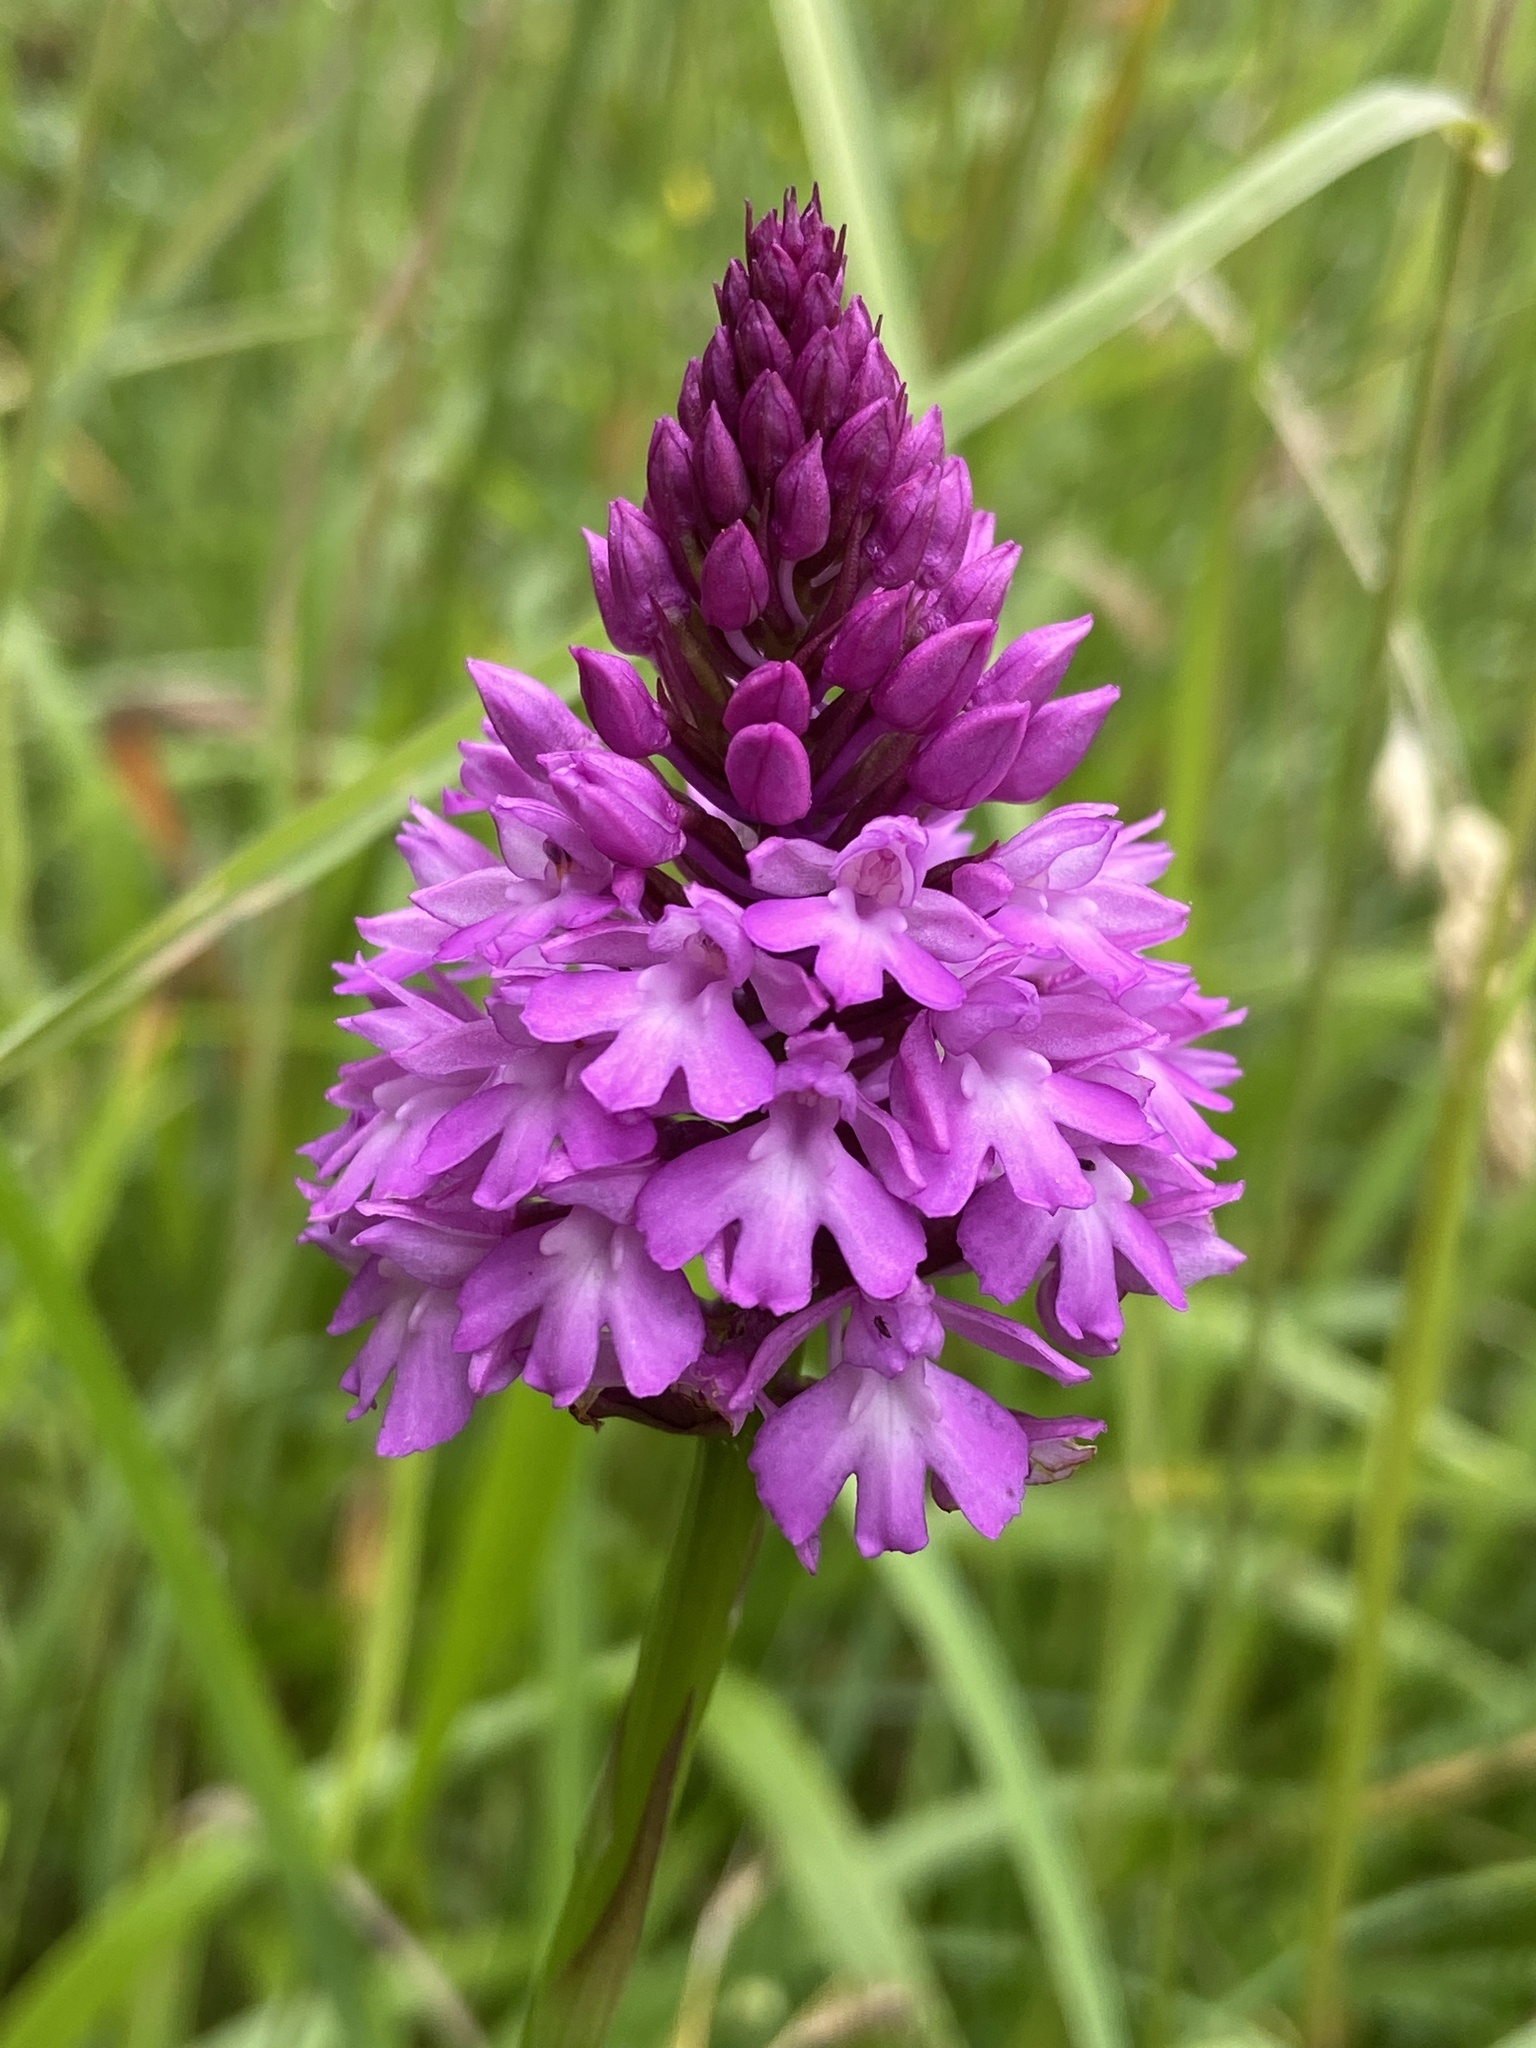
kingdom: Plantae
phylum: Tracheophyta
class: Liliopsida
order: Asparagales
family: Orchidaceae
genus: Anacamptis
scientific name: Anacamptis pyramidalis
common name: Pyramidal orchid
